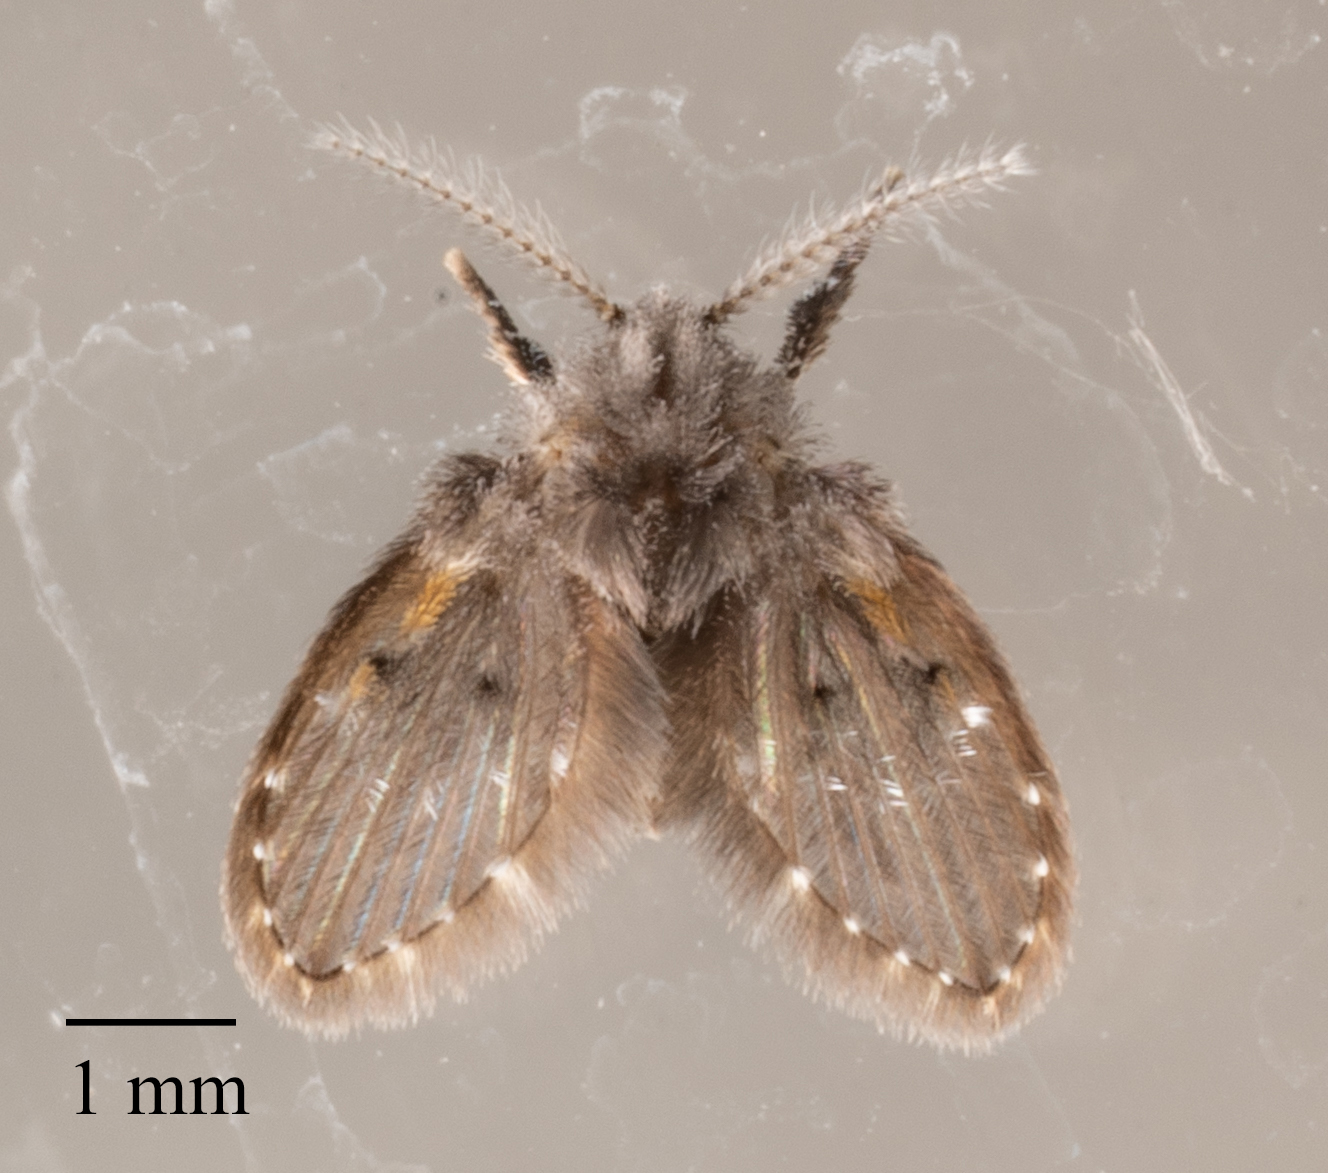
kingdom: Animalia
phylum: Arthropoda
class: Insecta
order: Diptera
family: Psychodidae
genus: Clogmia
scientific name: Clogmia albipunctatus
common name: White-spotted moth fly
